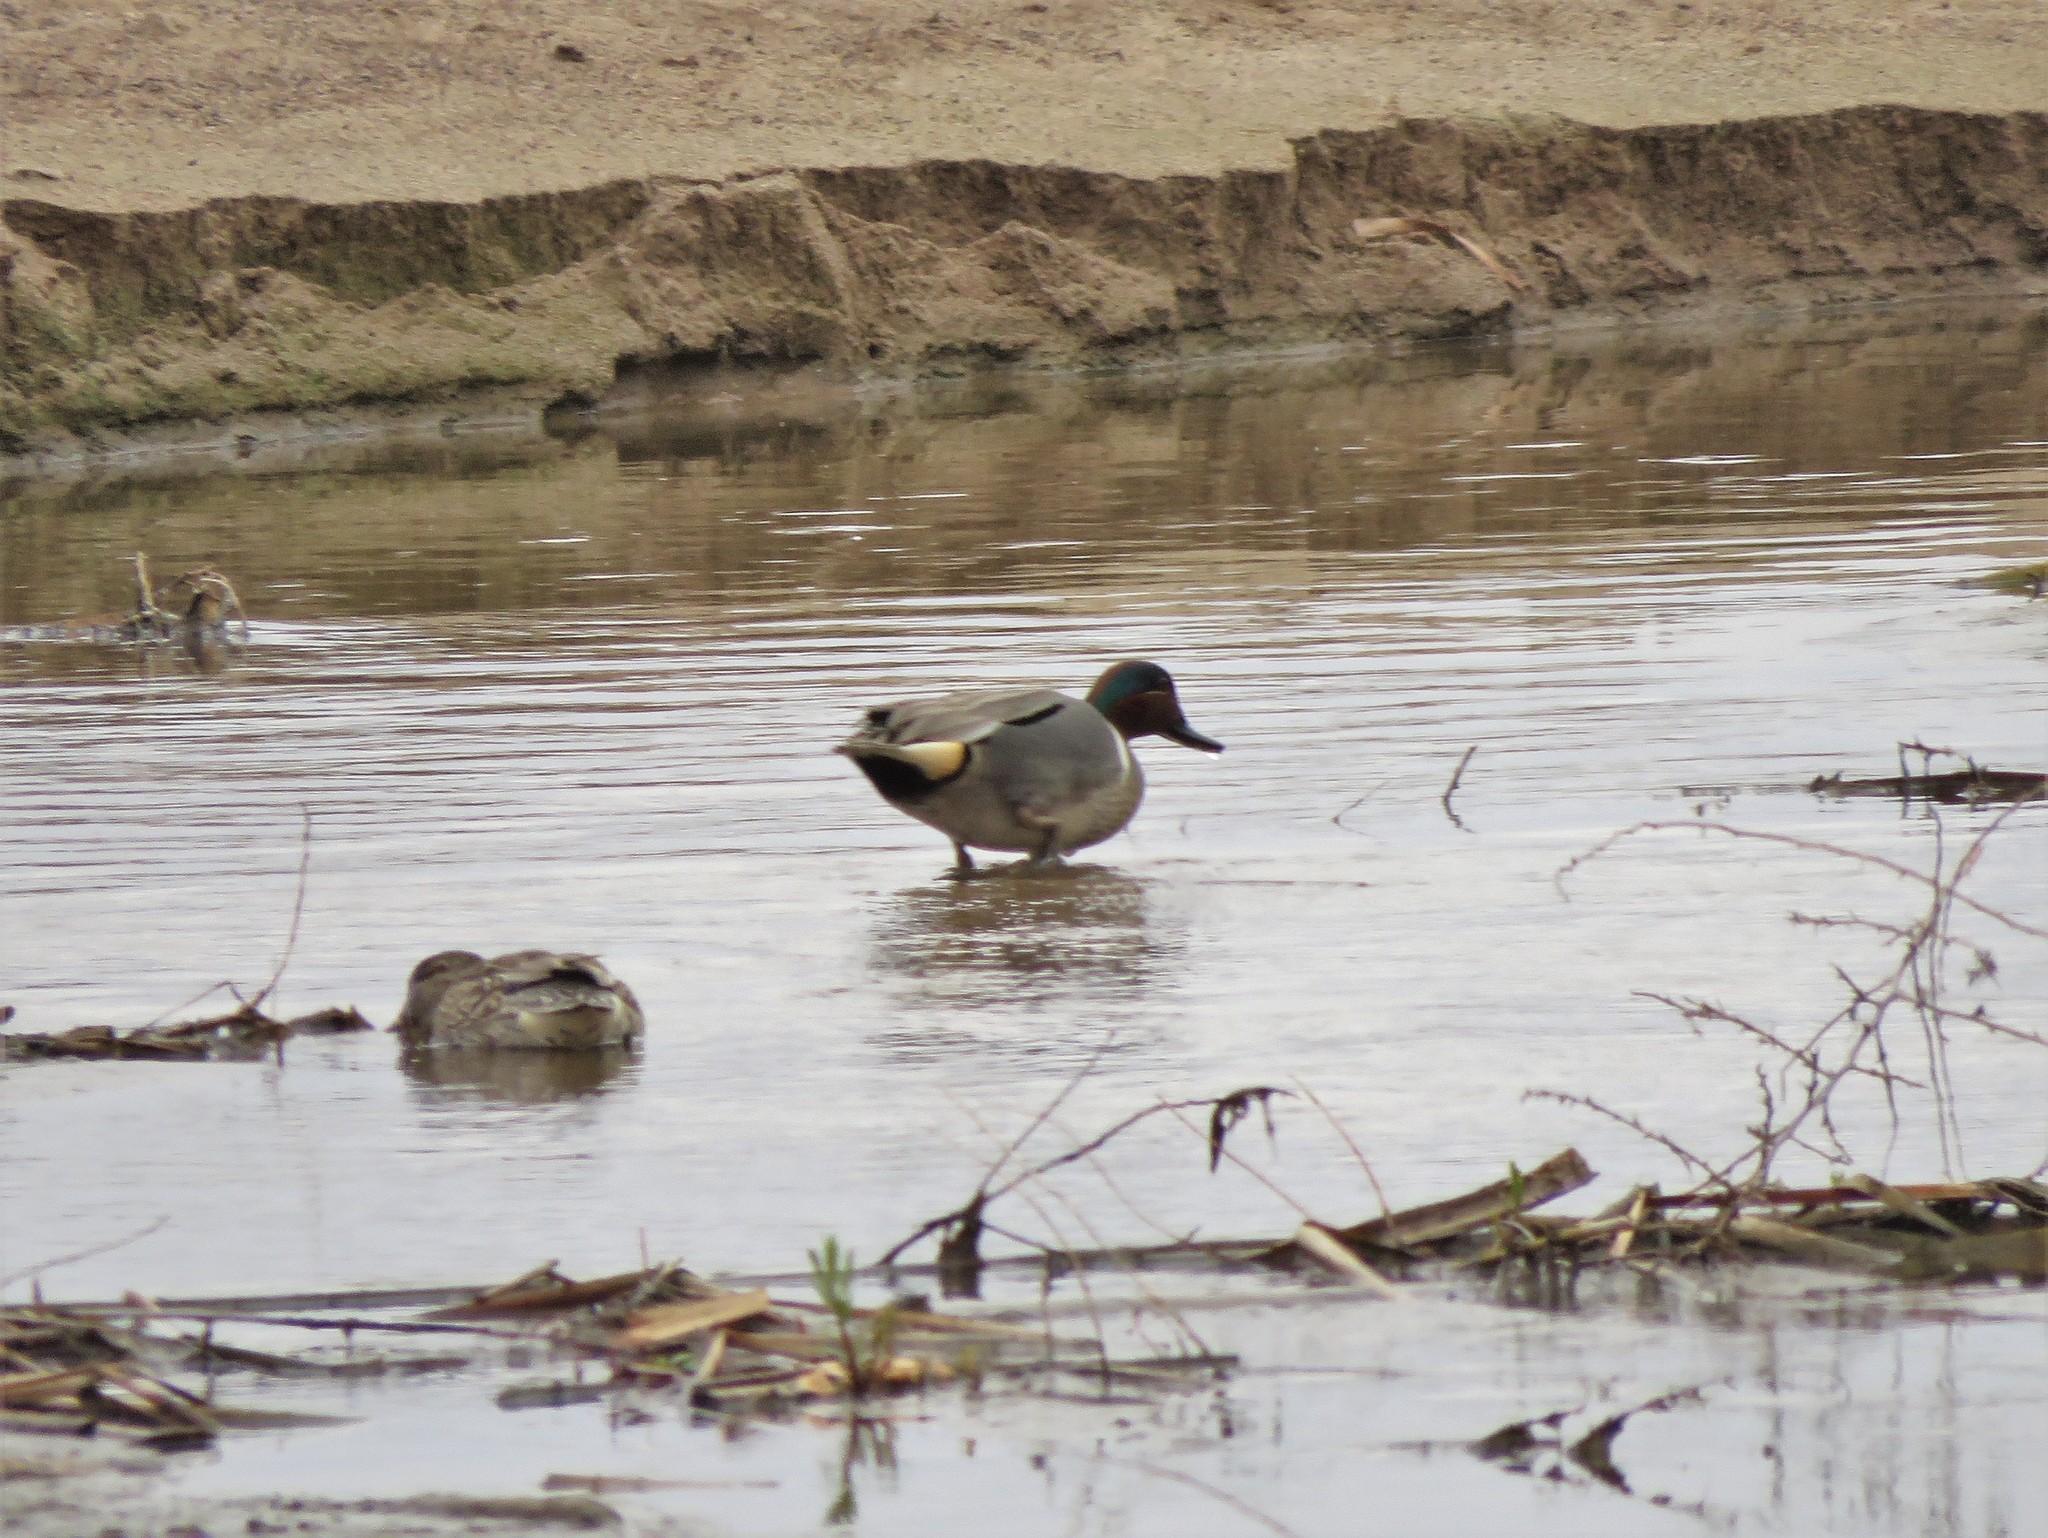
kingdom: Animalia
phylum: Chordata
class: Aves
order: Anseriformes
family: Anatidae
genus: Anas
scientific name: Anas crecca
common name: Eurasian teal
